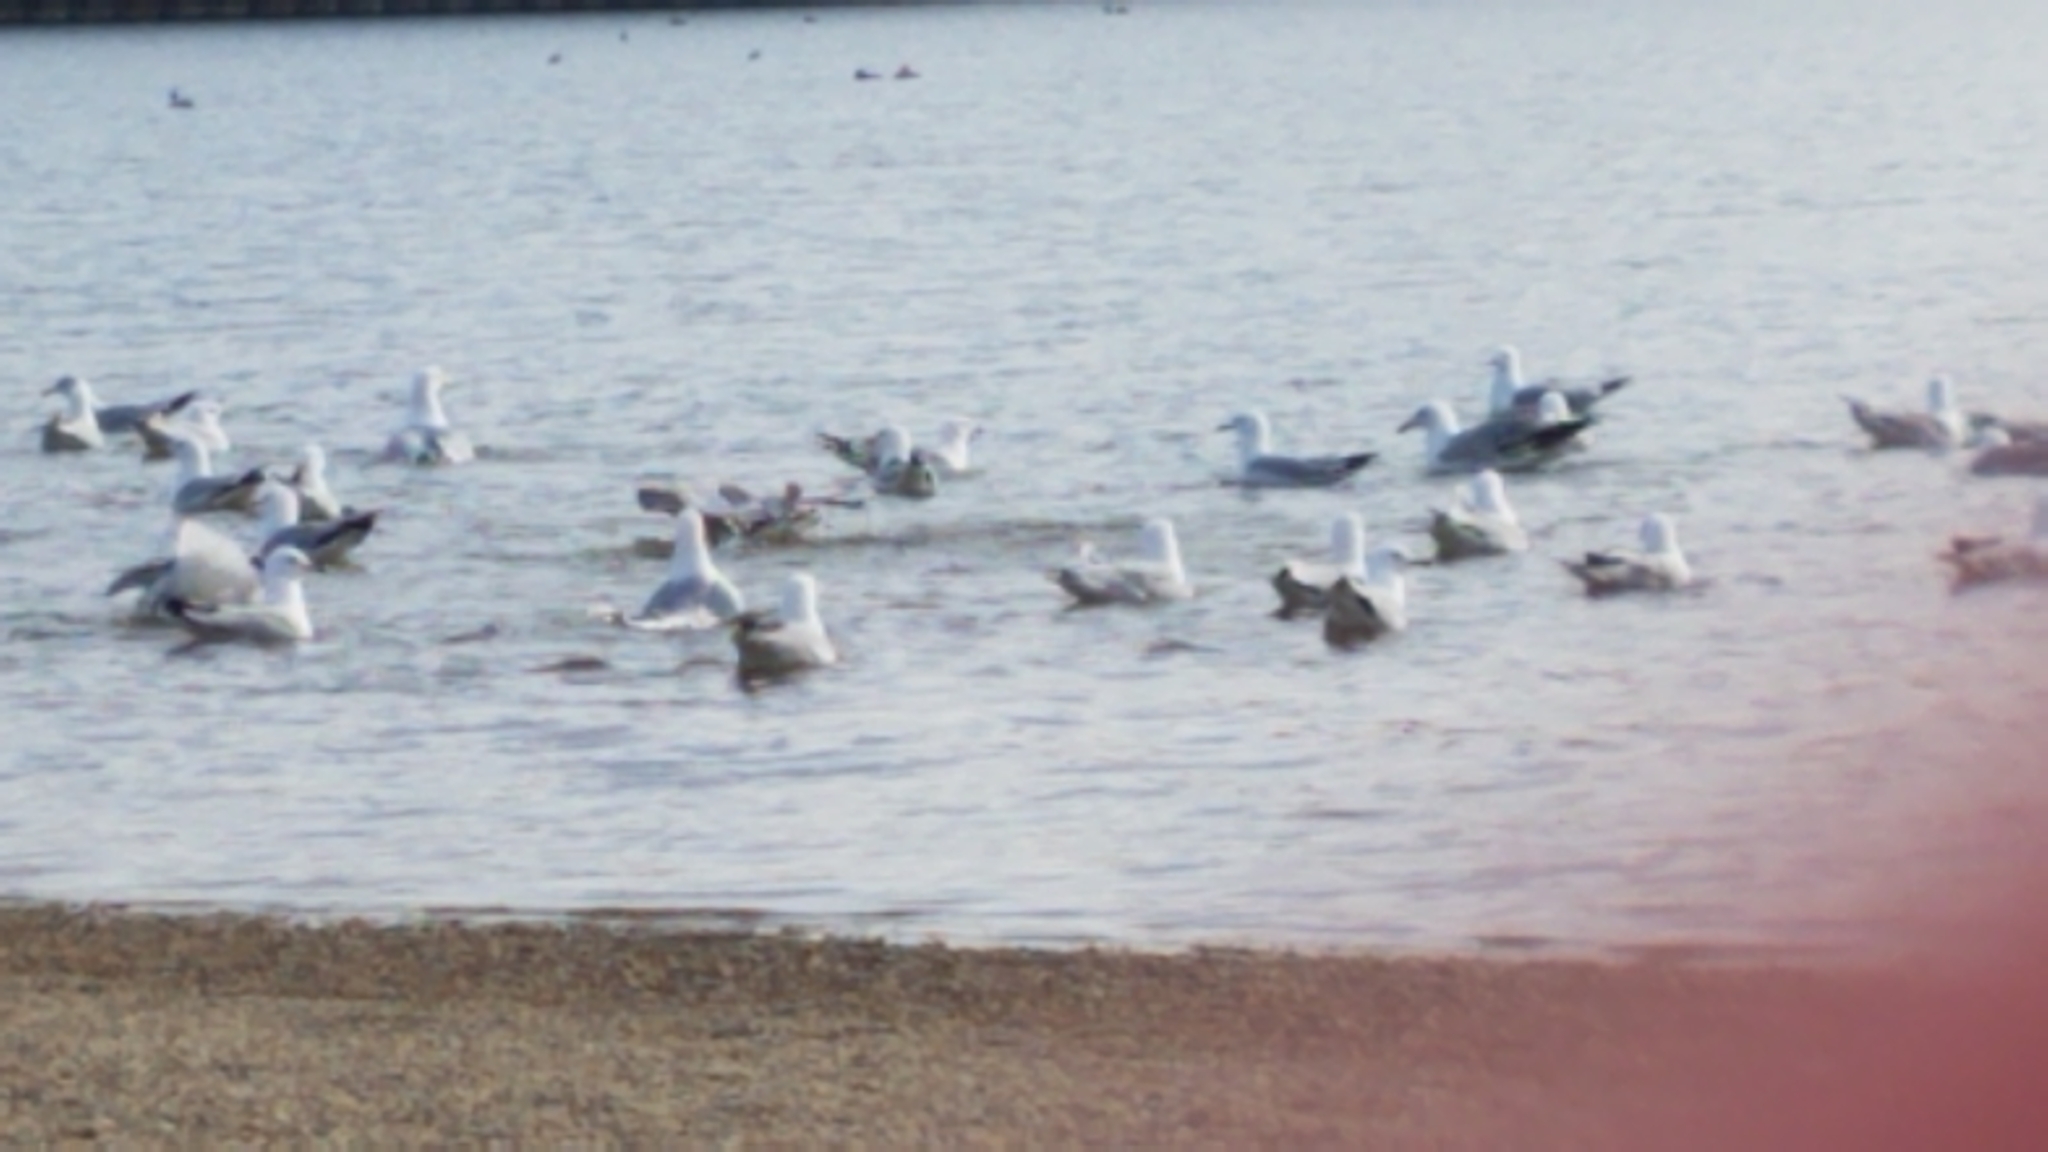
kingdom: Animalia
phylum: Chordata
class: Aves
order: Charadriiformes
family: Laridae
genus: Larus
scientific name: Larus delawarensis
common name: Ring-billed gull
